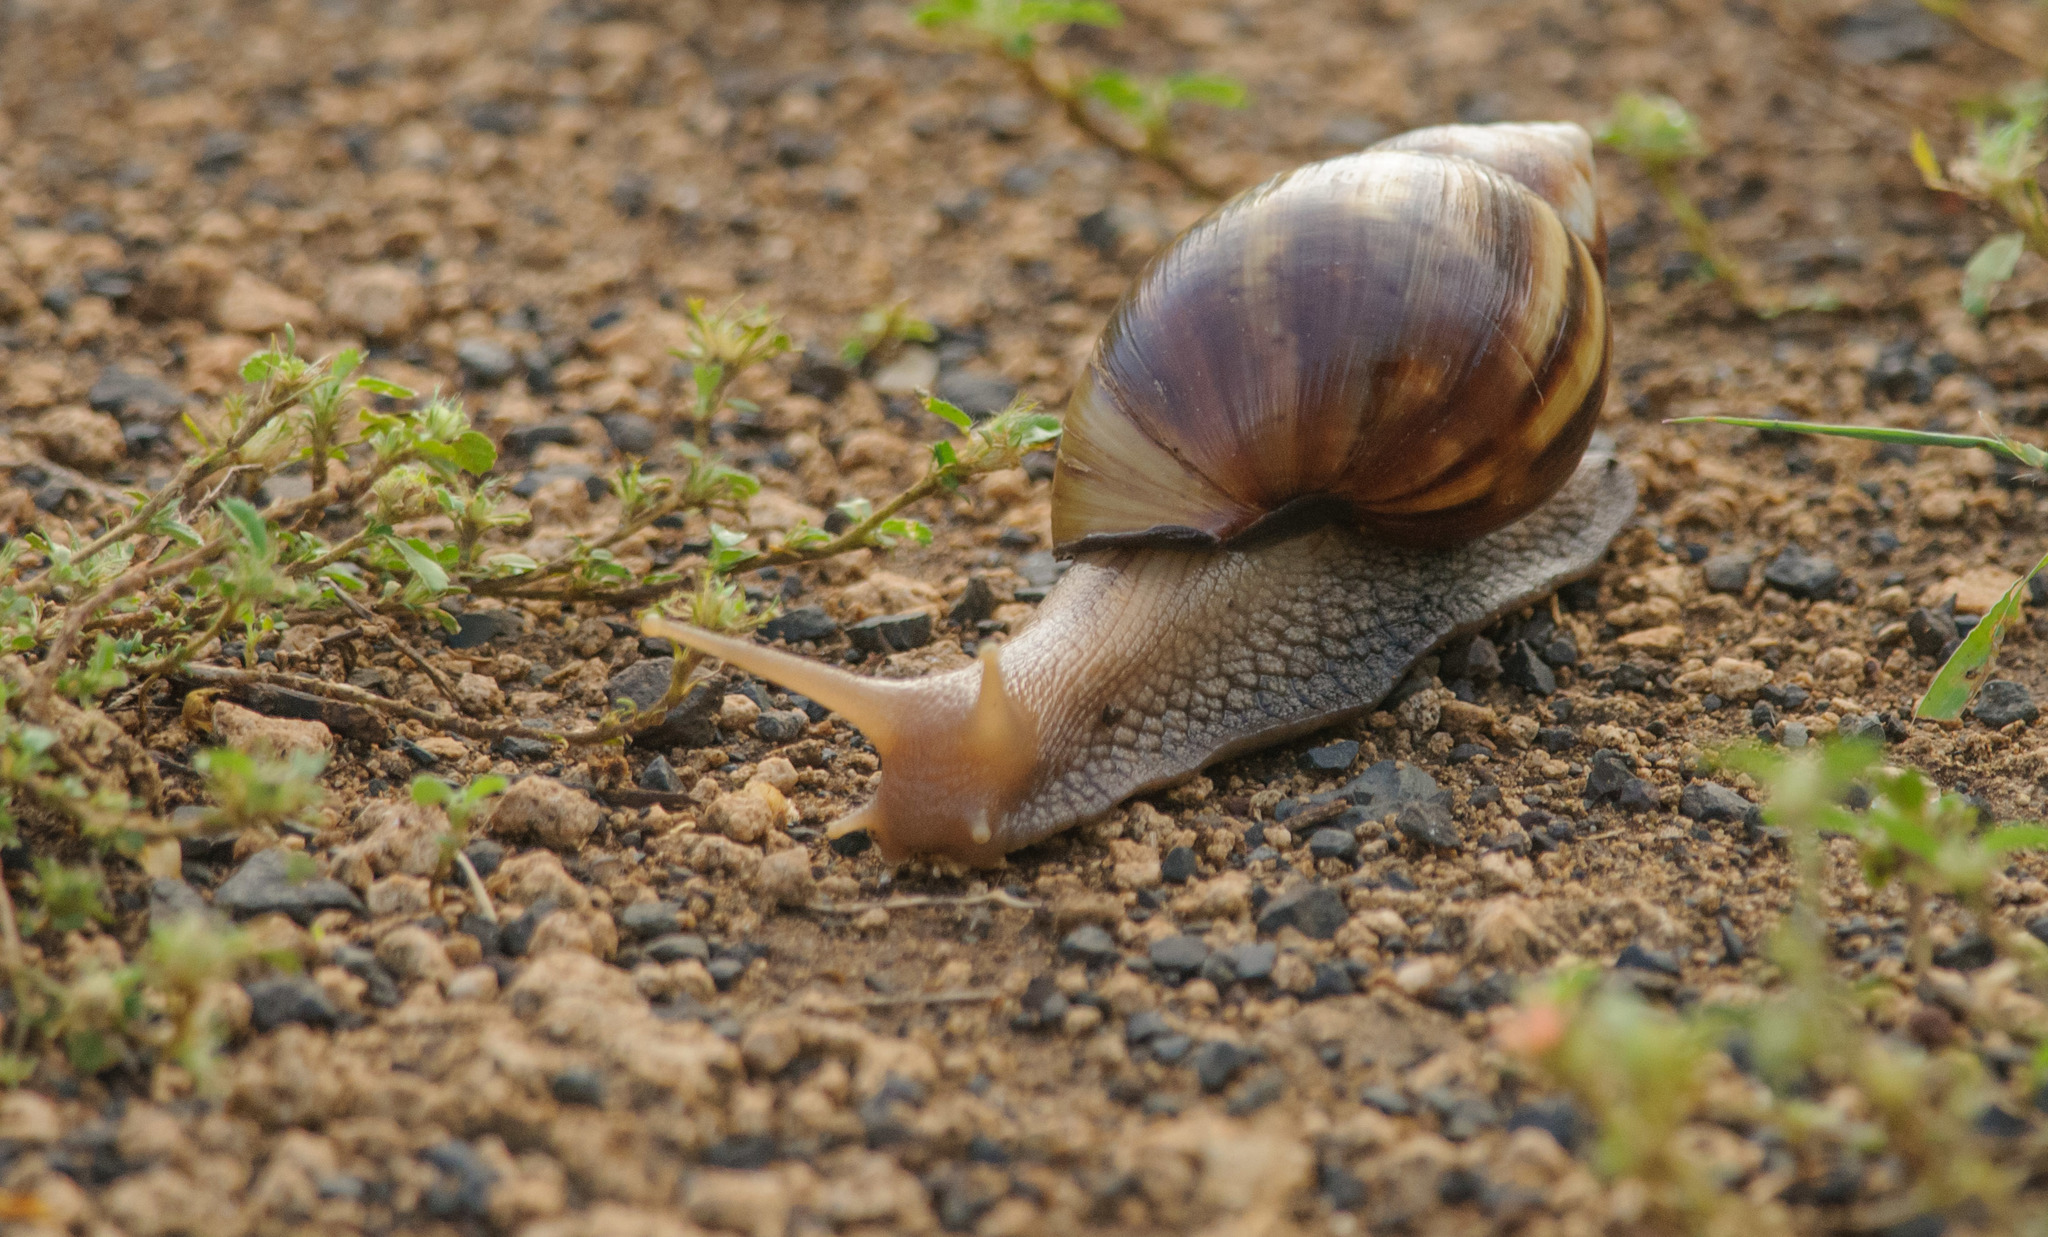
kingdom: Animalia
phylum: Mollusca
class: Gastropoda
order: Stylommatophora
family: Achatinidae
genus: Lissachatina
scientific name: Lissachatina fulica
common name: Giant african snail
